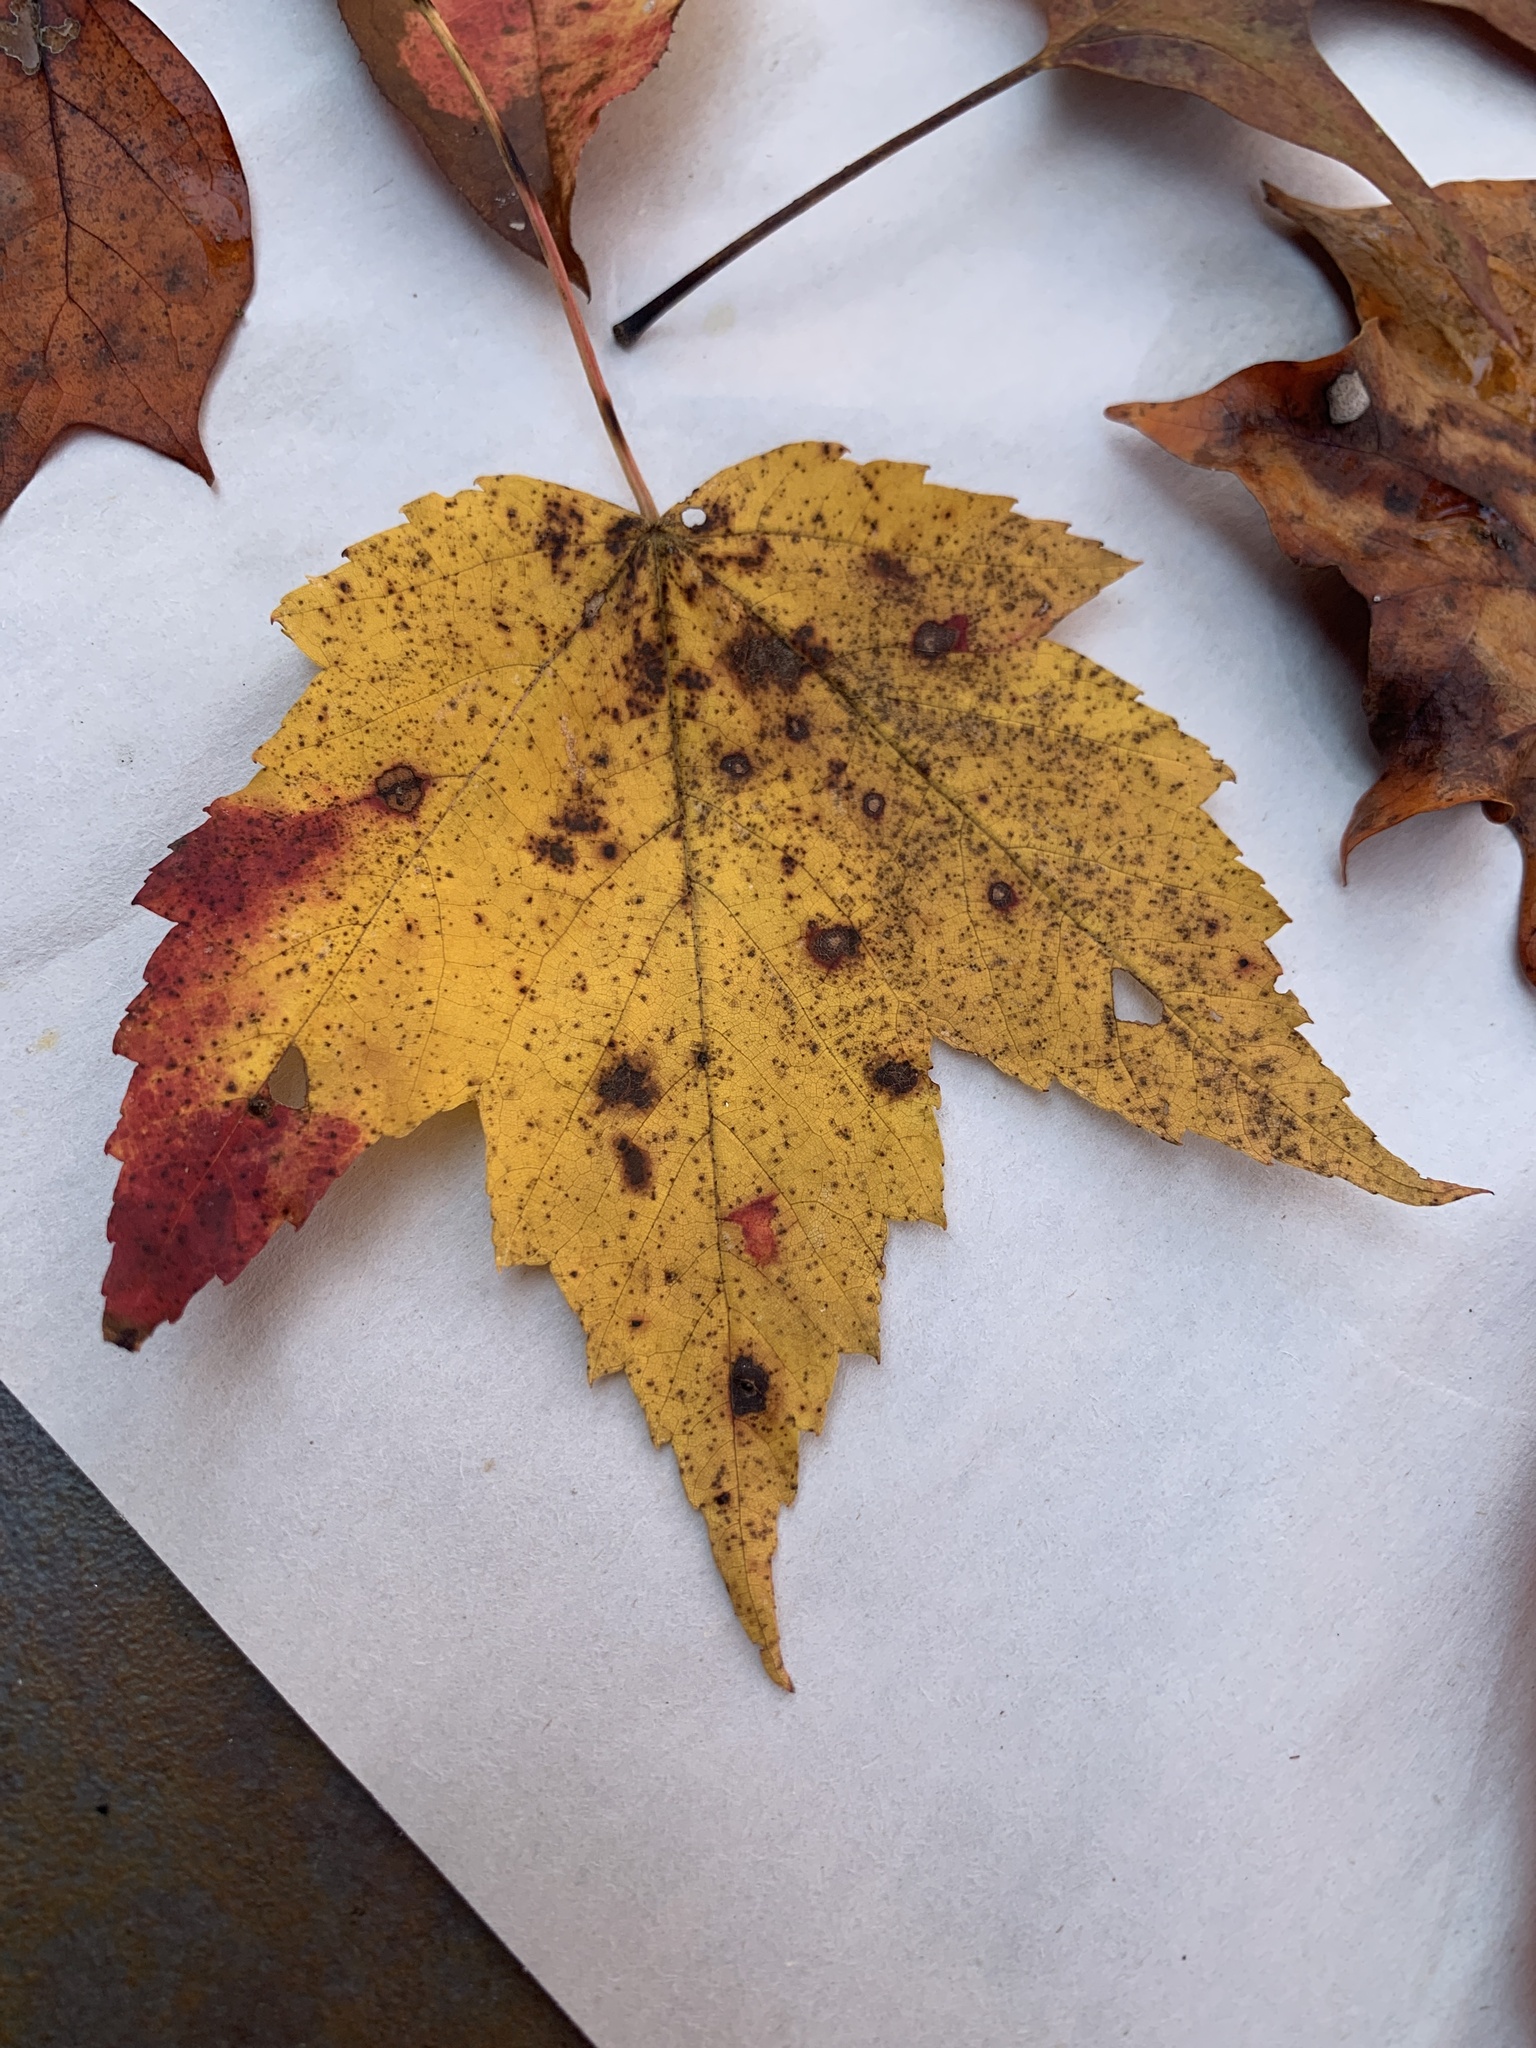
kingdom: Plantae
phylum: Tracheophyta
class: Magnoliopsida
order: Sapindales
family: Sapindaceae
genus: Acer
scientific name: Acer rubrum
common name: Red maple
